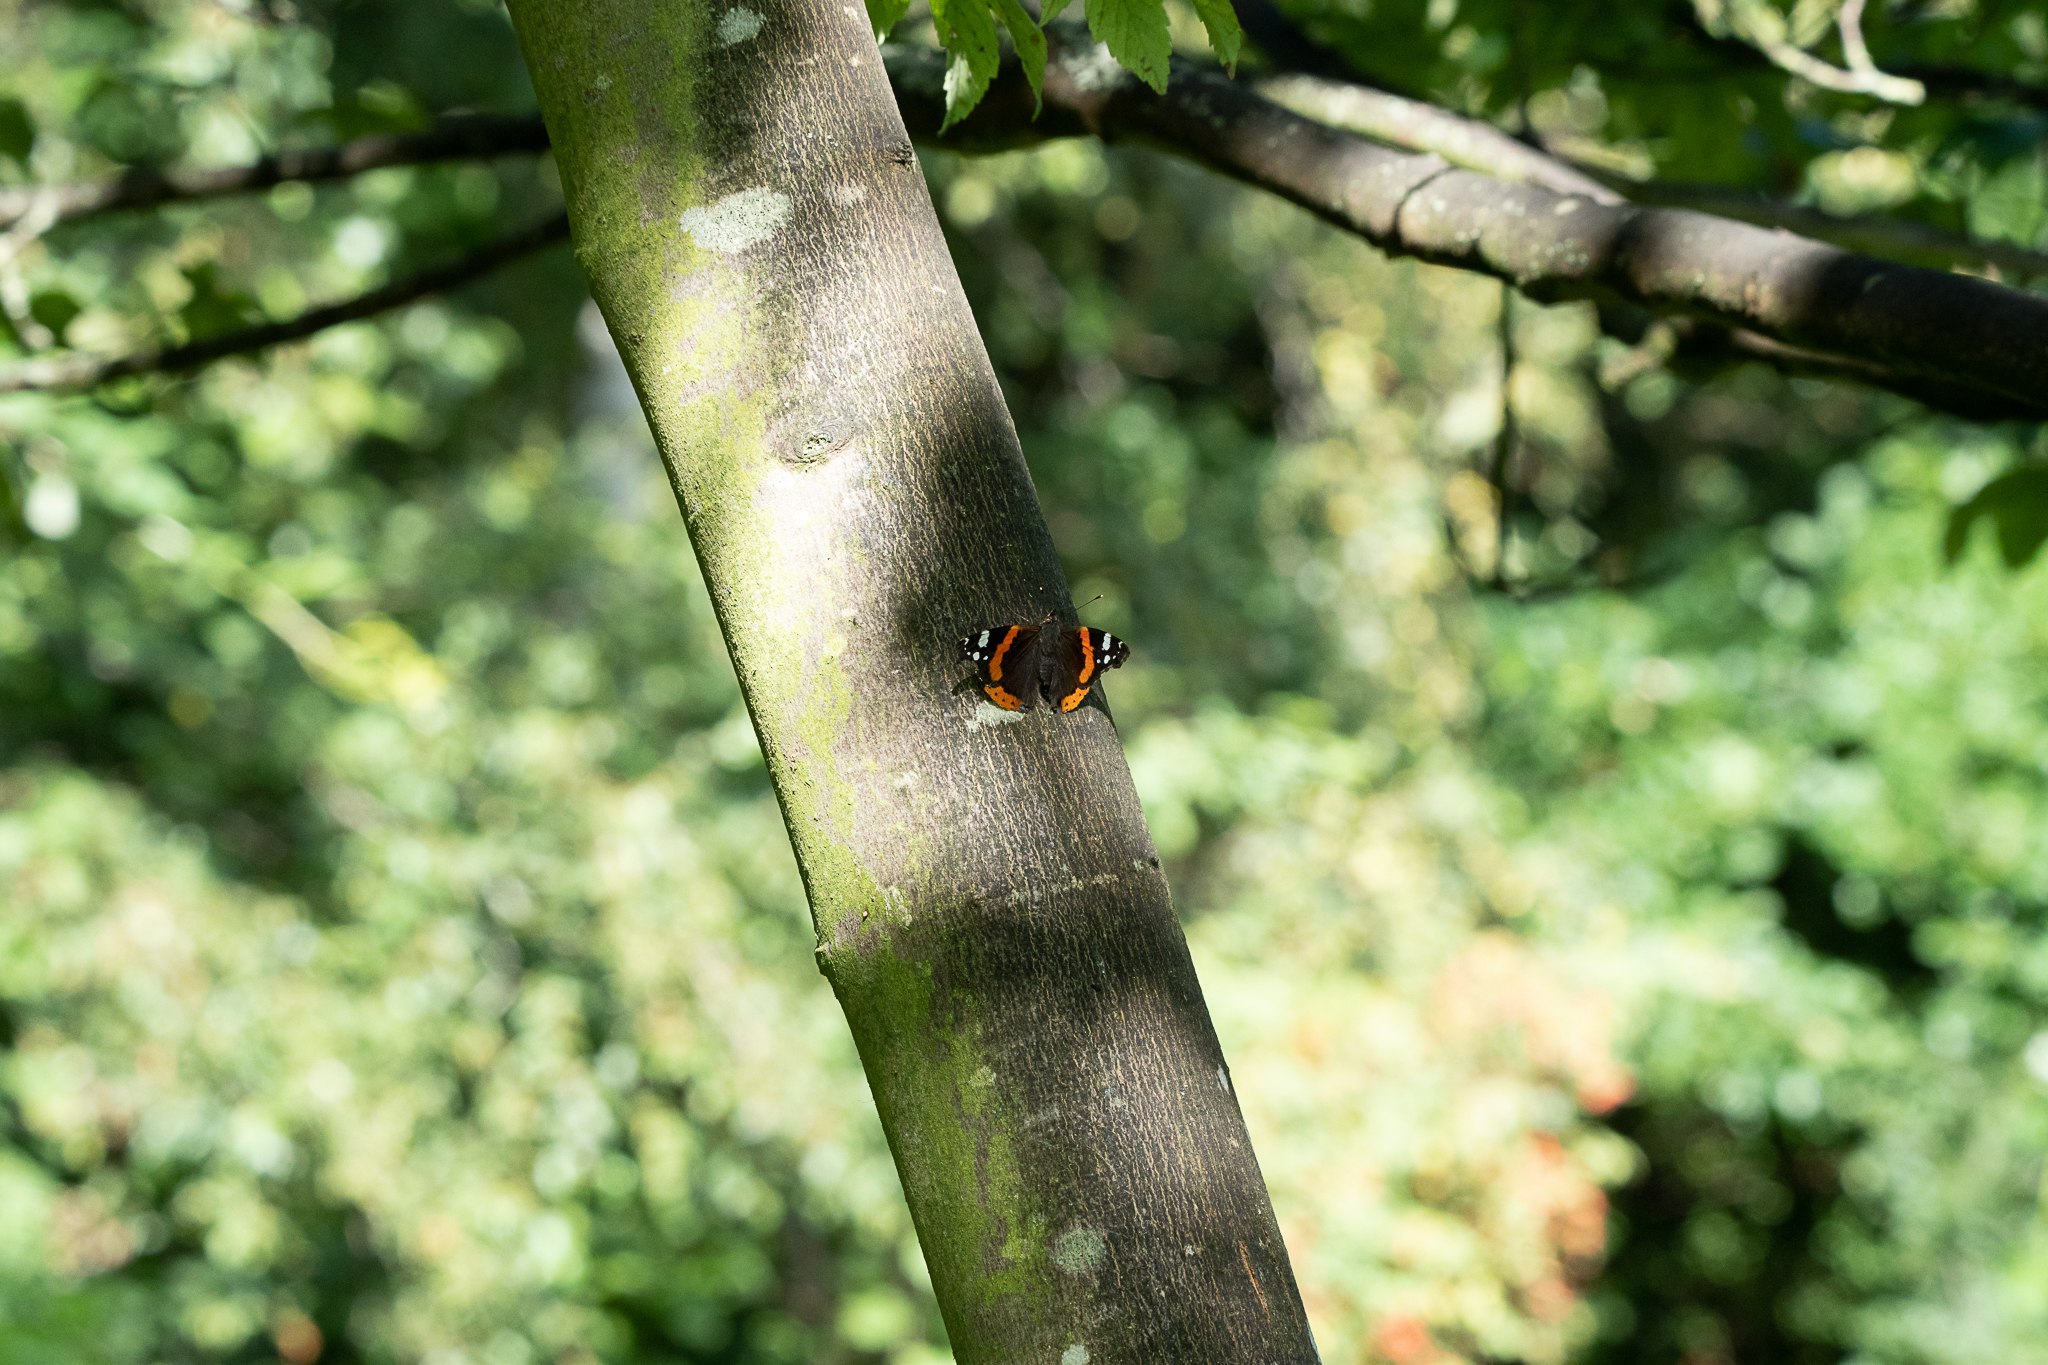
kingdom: Animalia
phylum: Arthropoda
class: Insecta
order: Lepidoptera
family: Nymphalidae
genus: Vanessa
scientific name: Vanessa atalanta
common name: Red admiral
